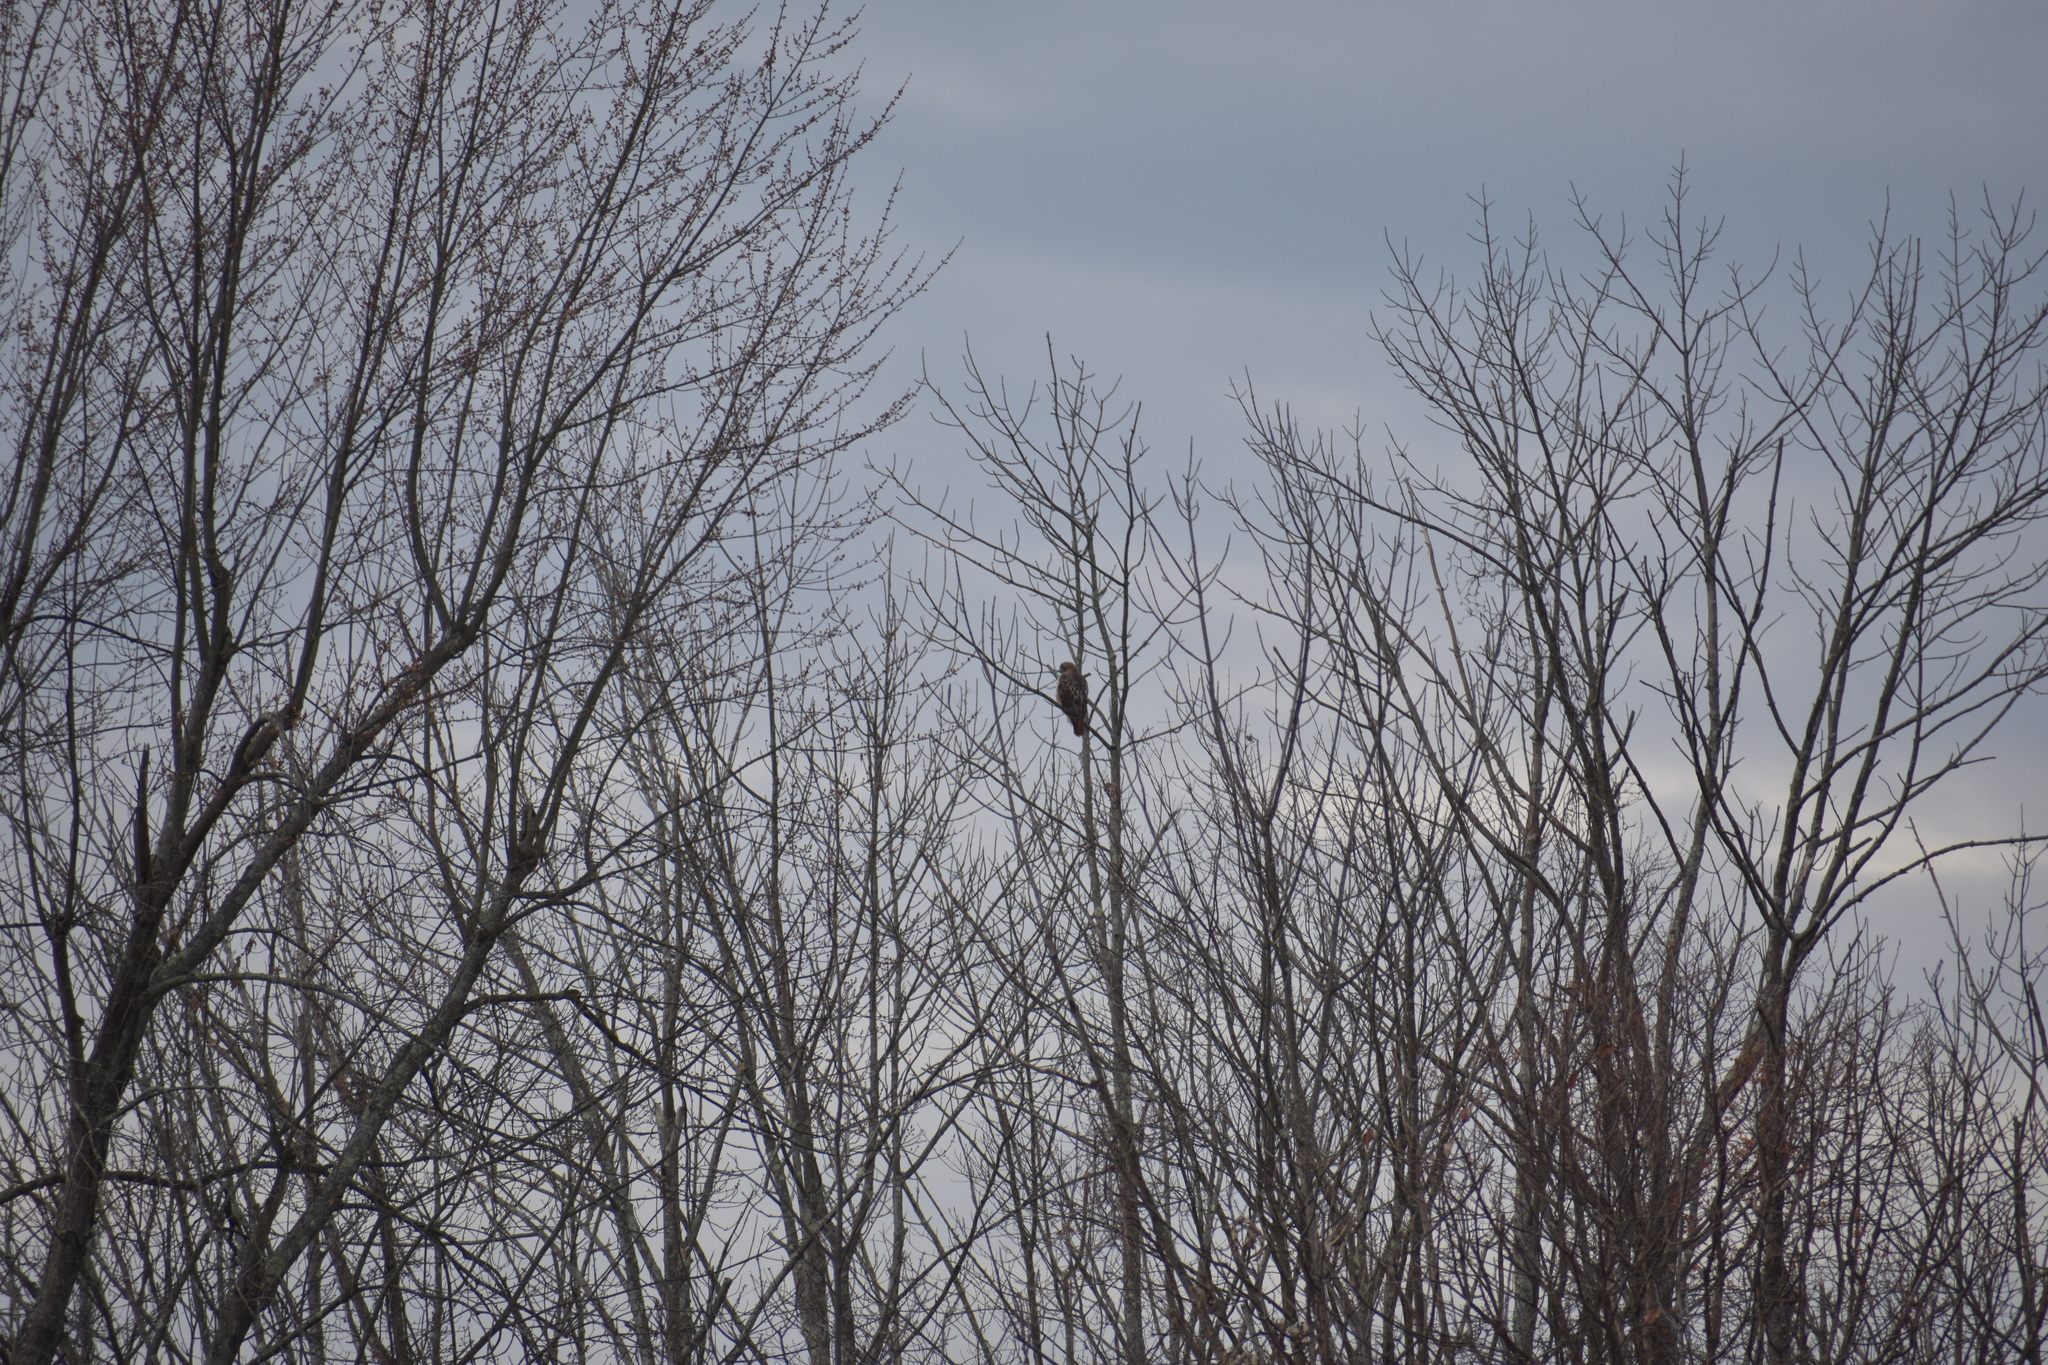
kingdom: Animalia
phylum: Chordata
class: Aves
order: Accipitriformes
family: Accipitridae
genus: Buteo
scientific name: Buteo jamaicensis
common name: Red-tailed hawk
